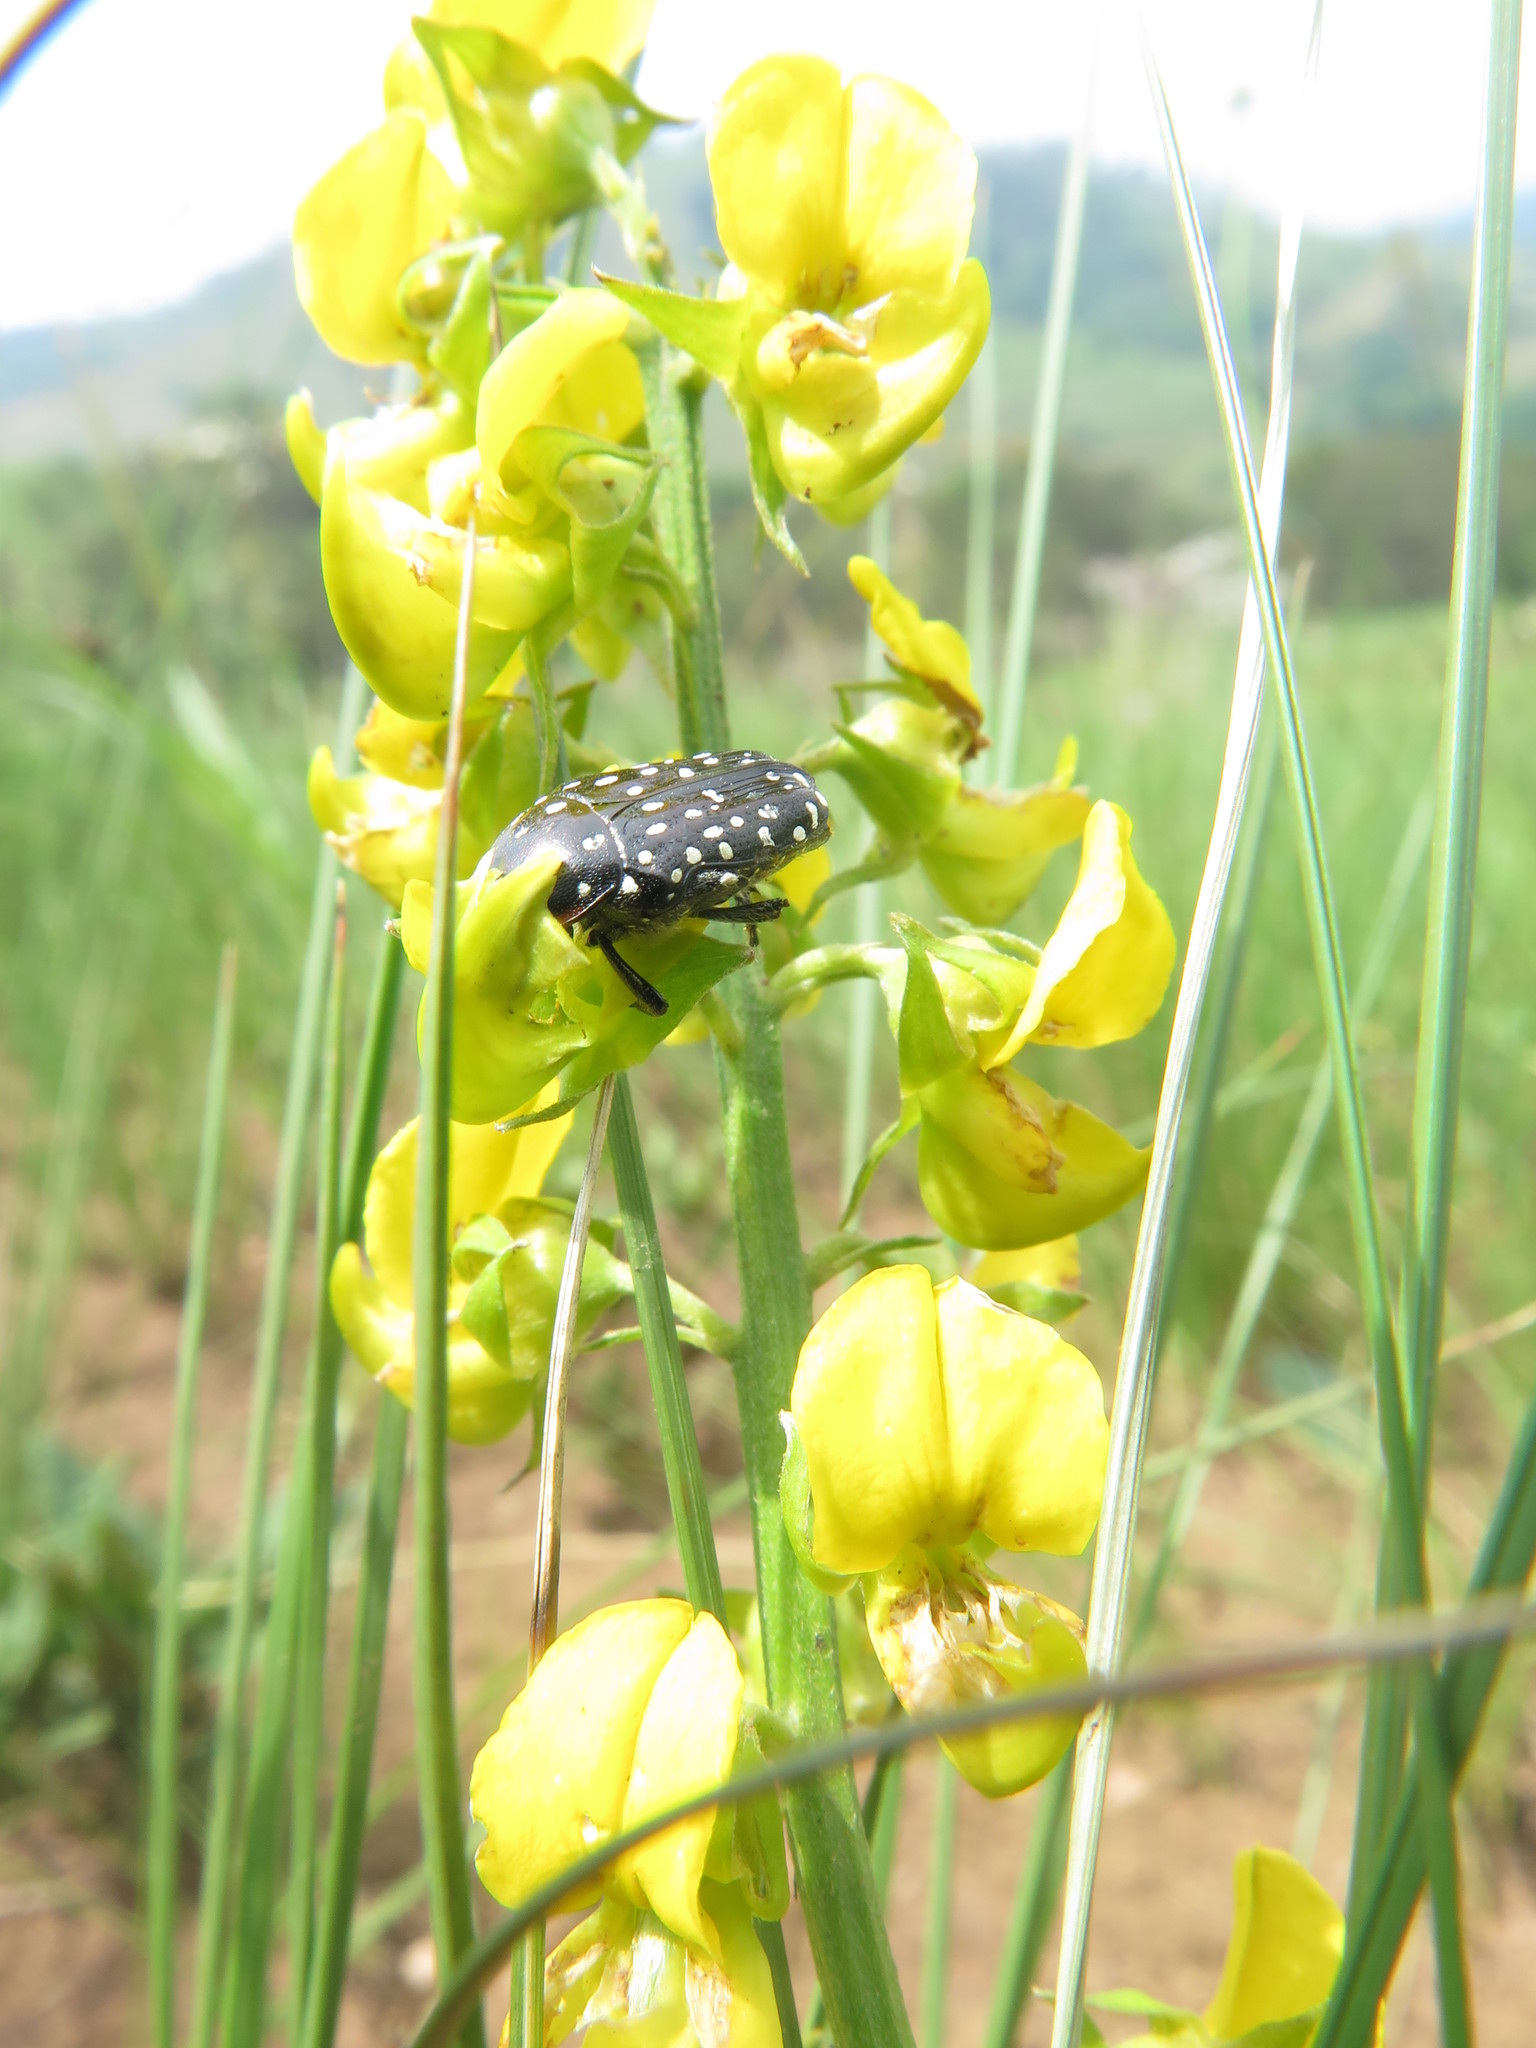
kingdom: Animalia
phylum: Arthropoda
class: Insecta
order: Coleoptera
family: Scarabaeidae
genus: Oxythyrea
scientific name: Oxythyrea
